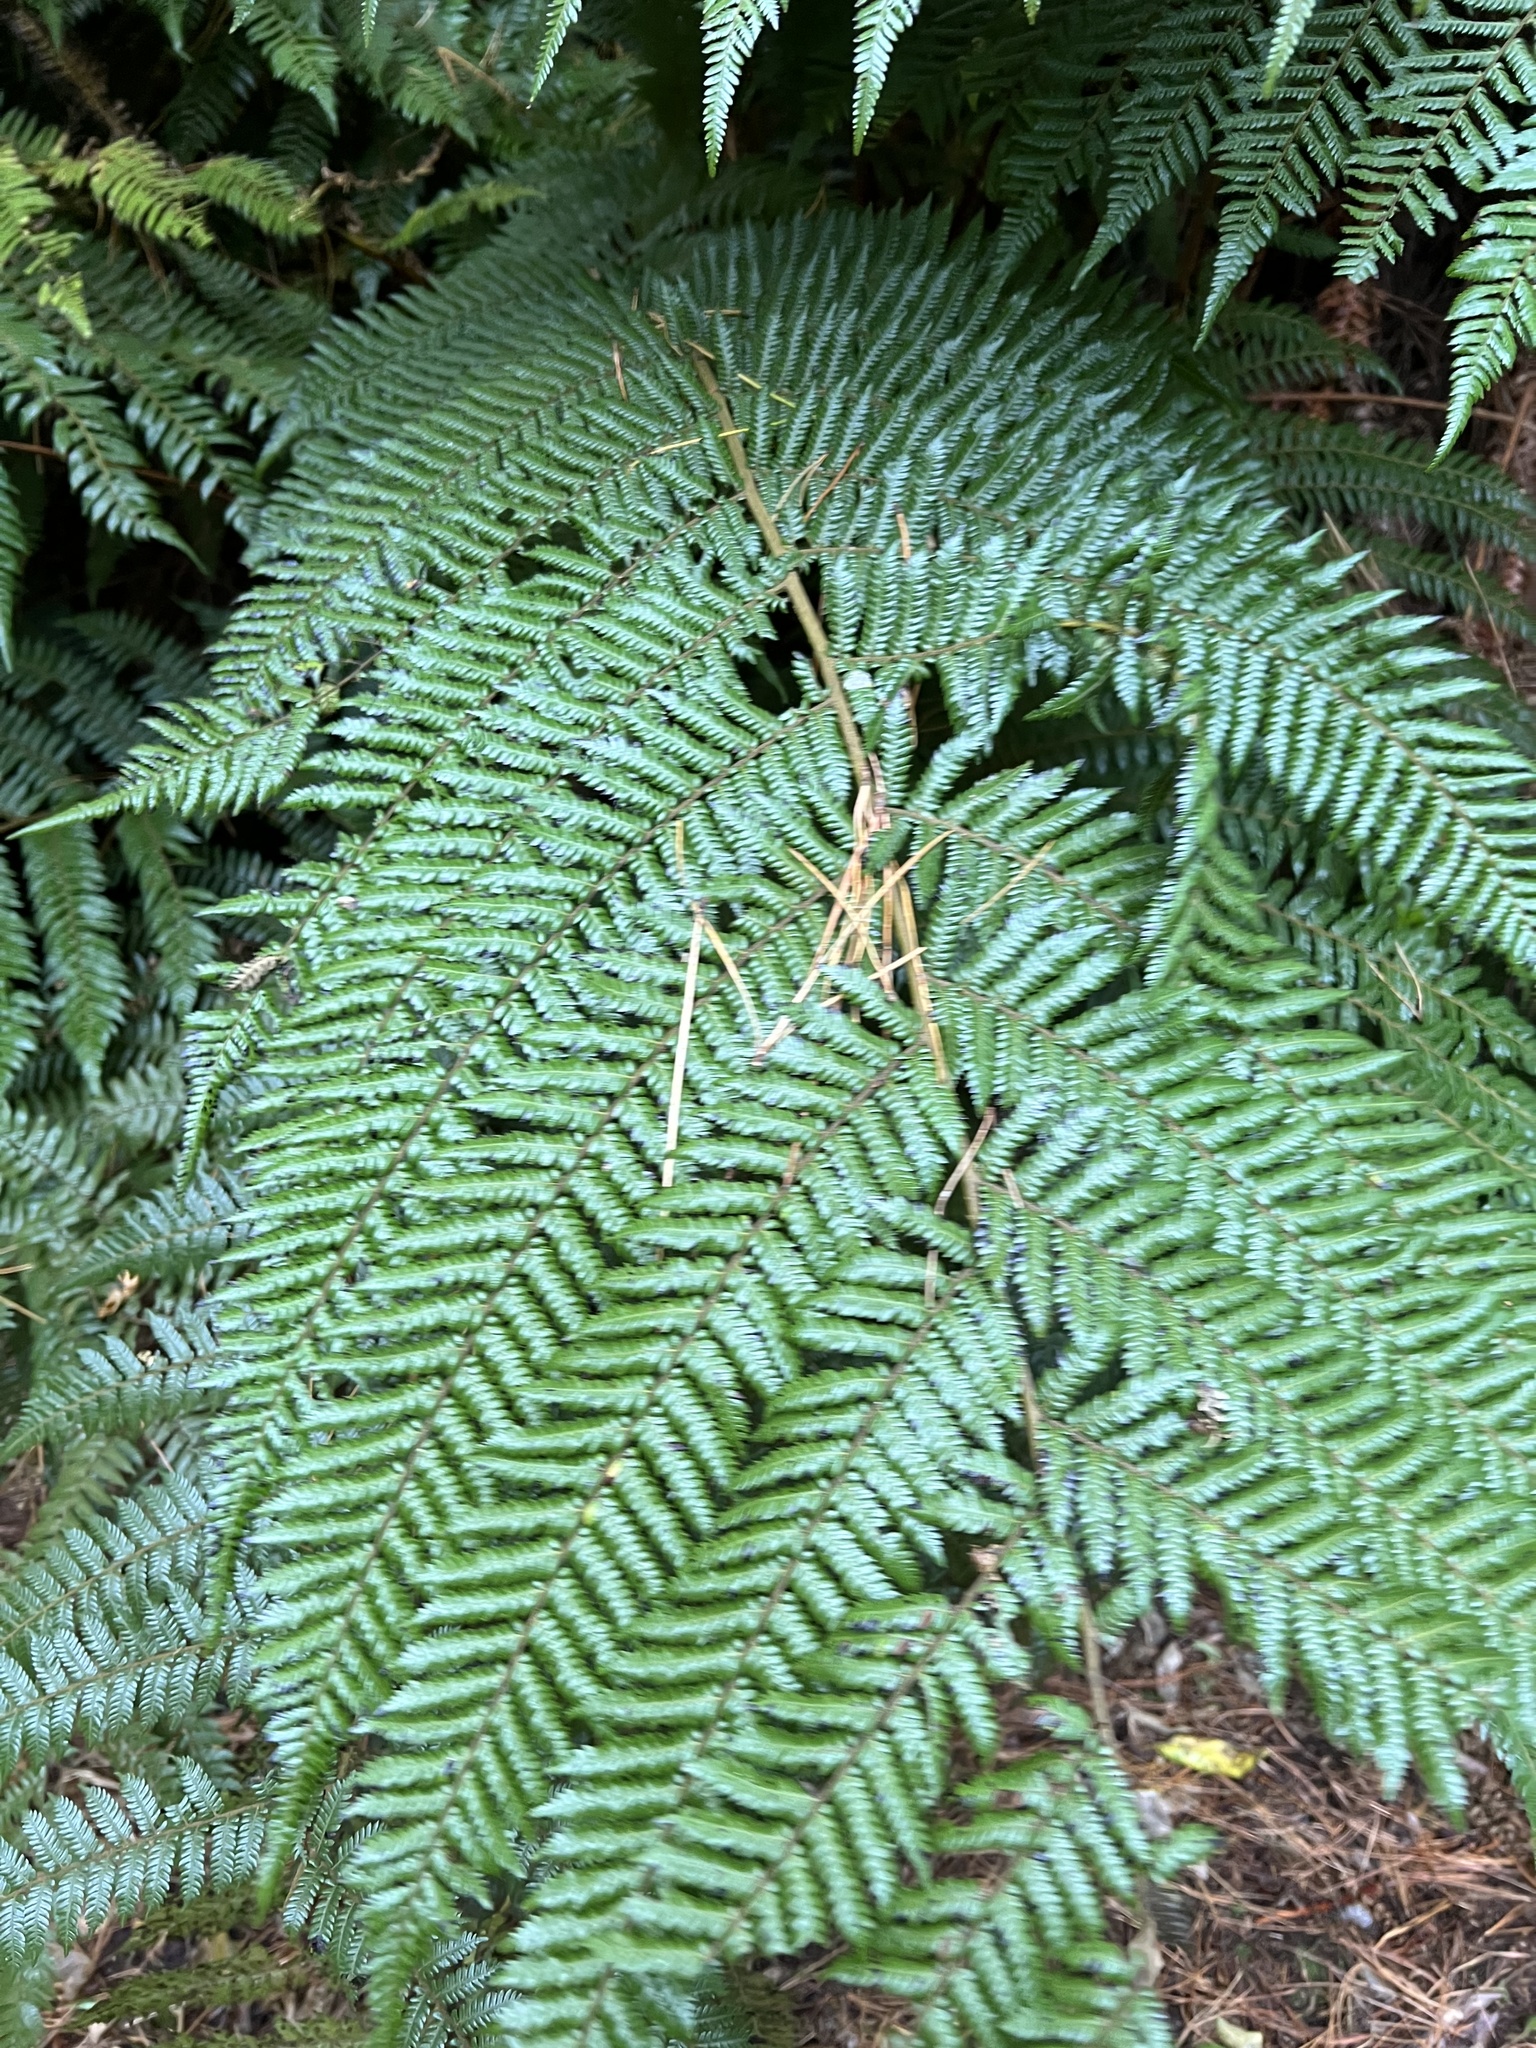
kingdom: Plantae
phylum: Tracheophyta
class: Polypodiopsida
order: Cyatheales
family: Cyatheaceae
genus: Alsophila
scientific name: Alsophila smithii
